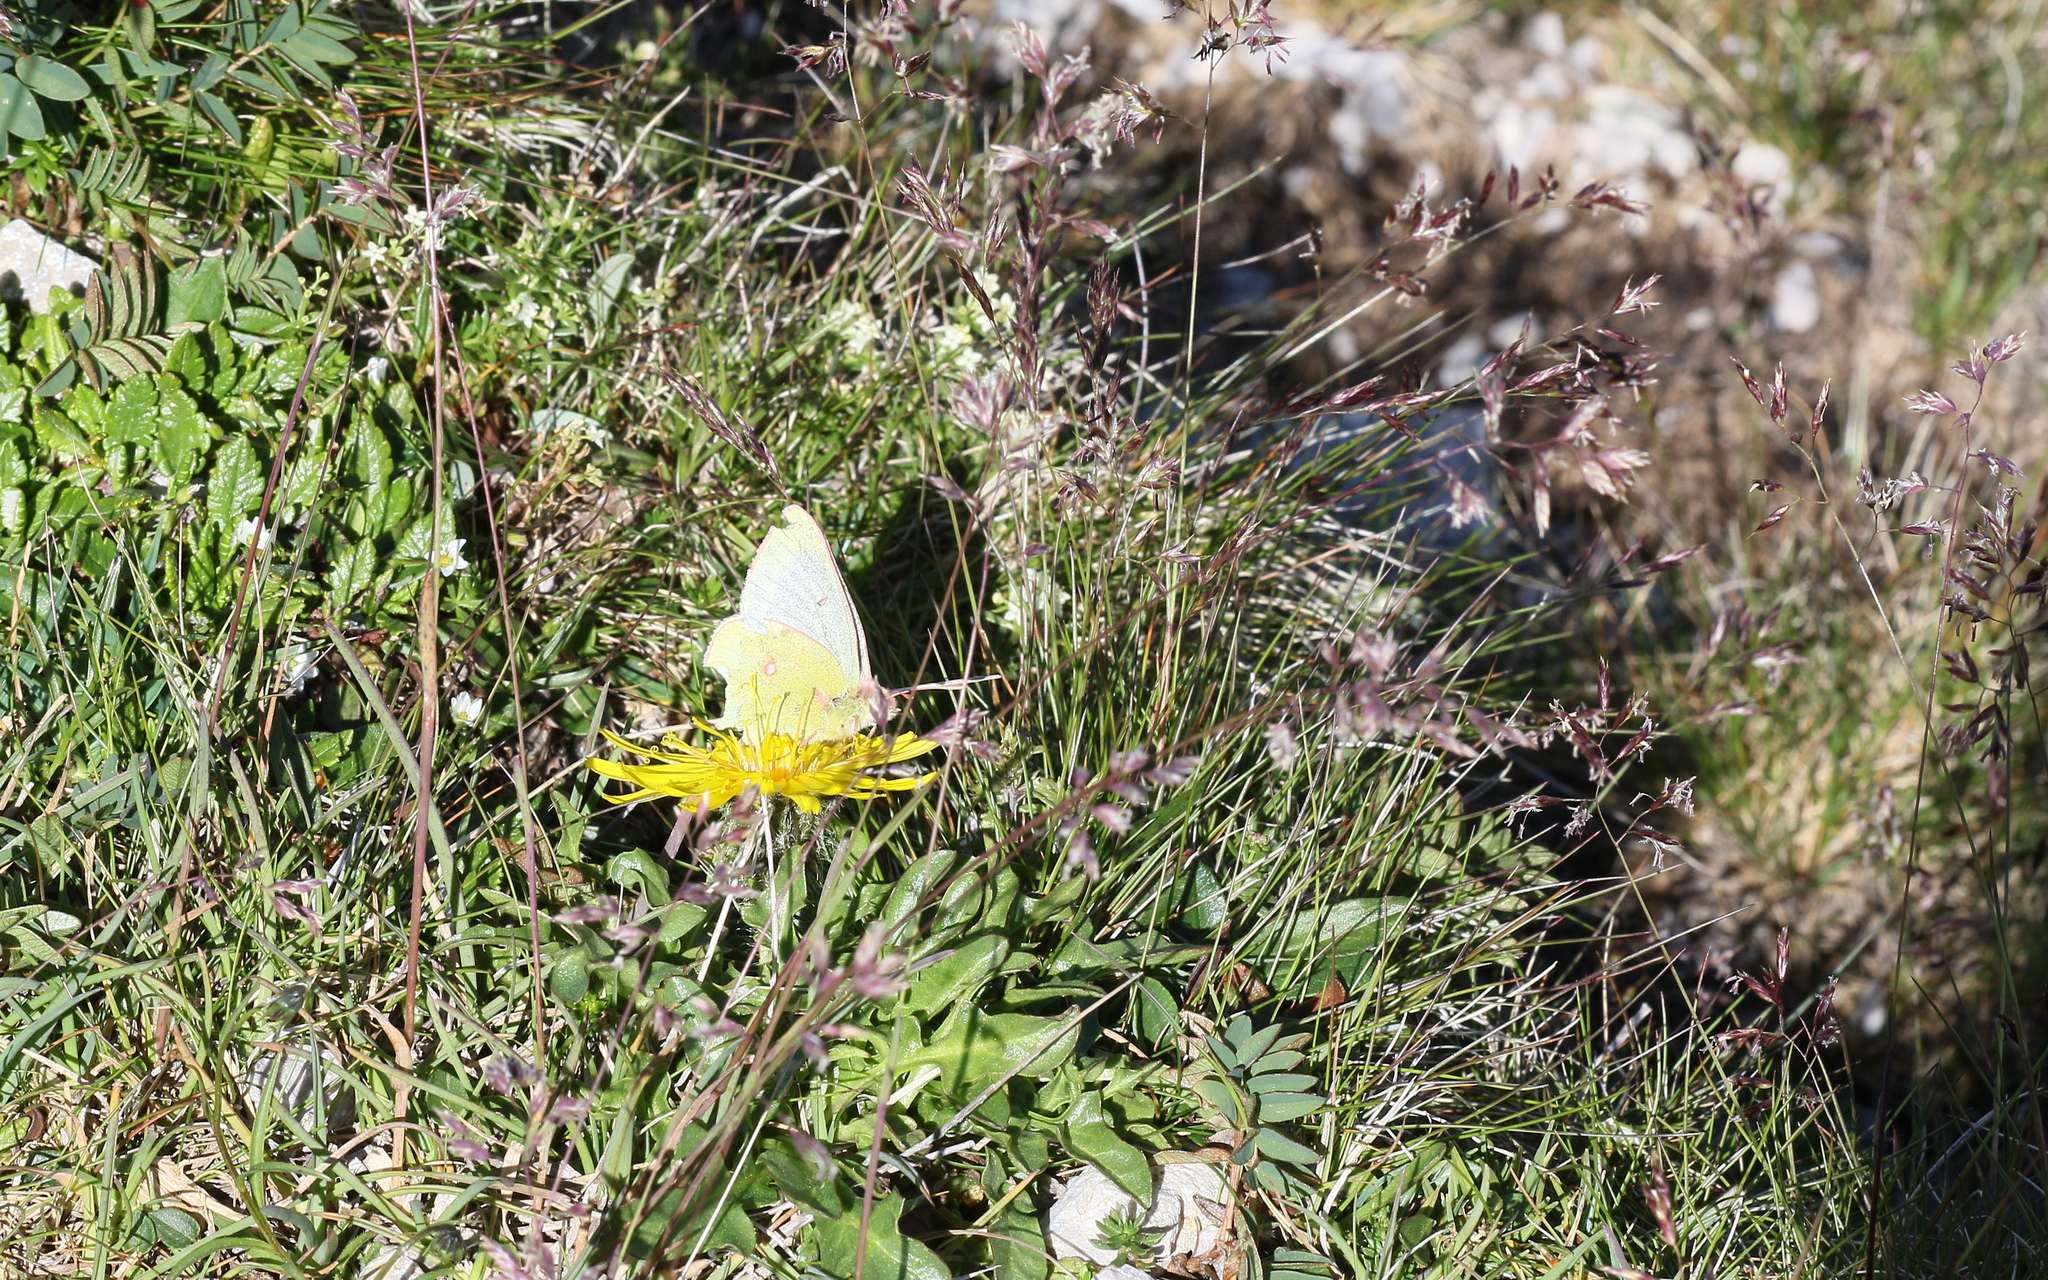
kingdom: Animalia
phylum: Arthropoda
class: Insecta
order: Lepidoptera
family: Pieridae
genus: Colias
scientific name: Colias phicomone
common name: Mountain clouded yellow
